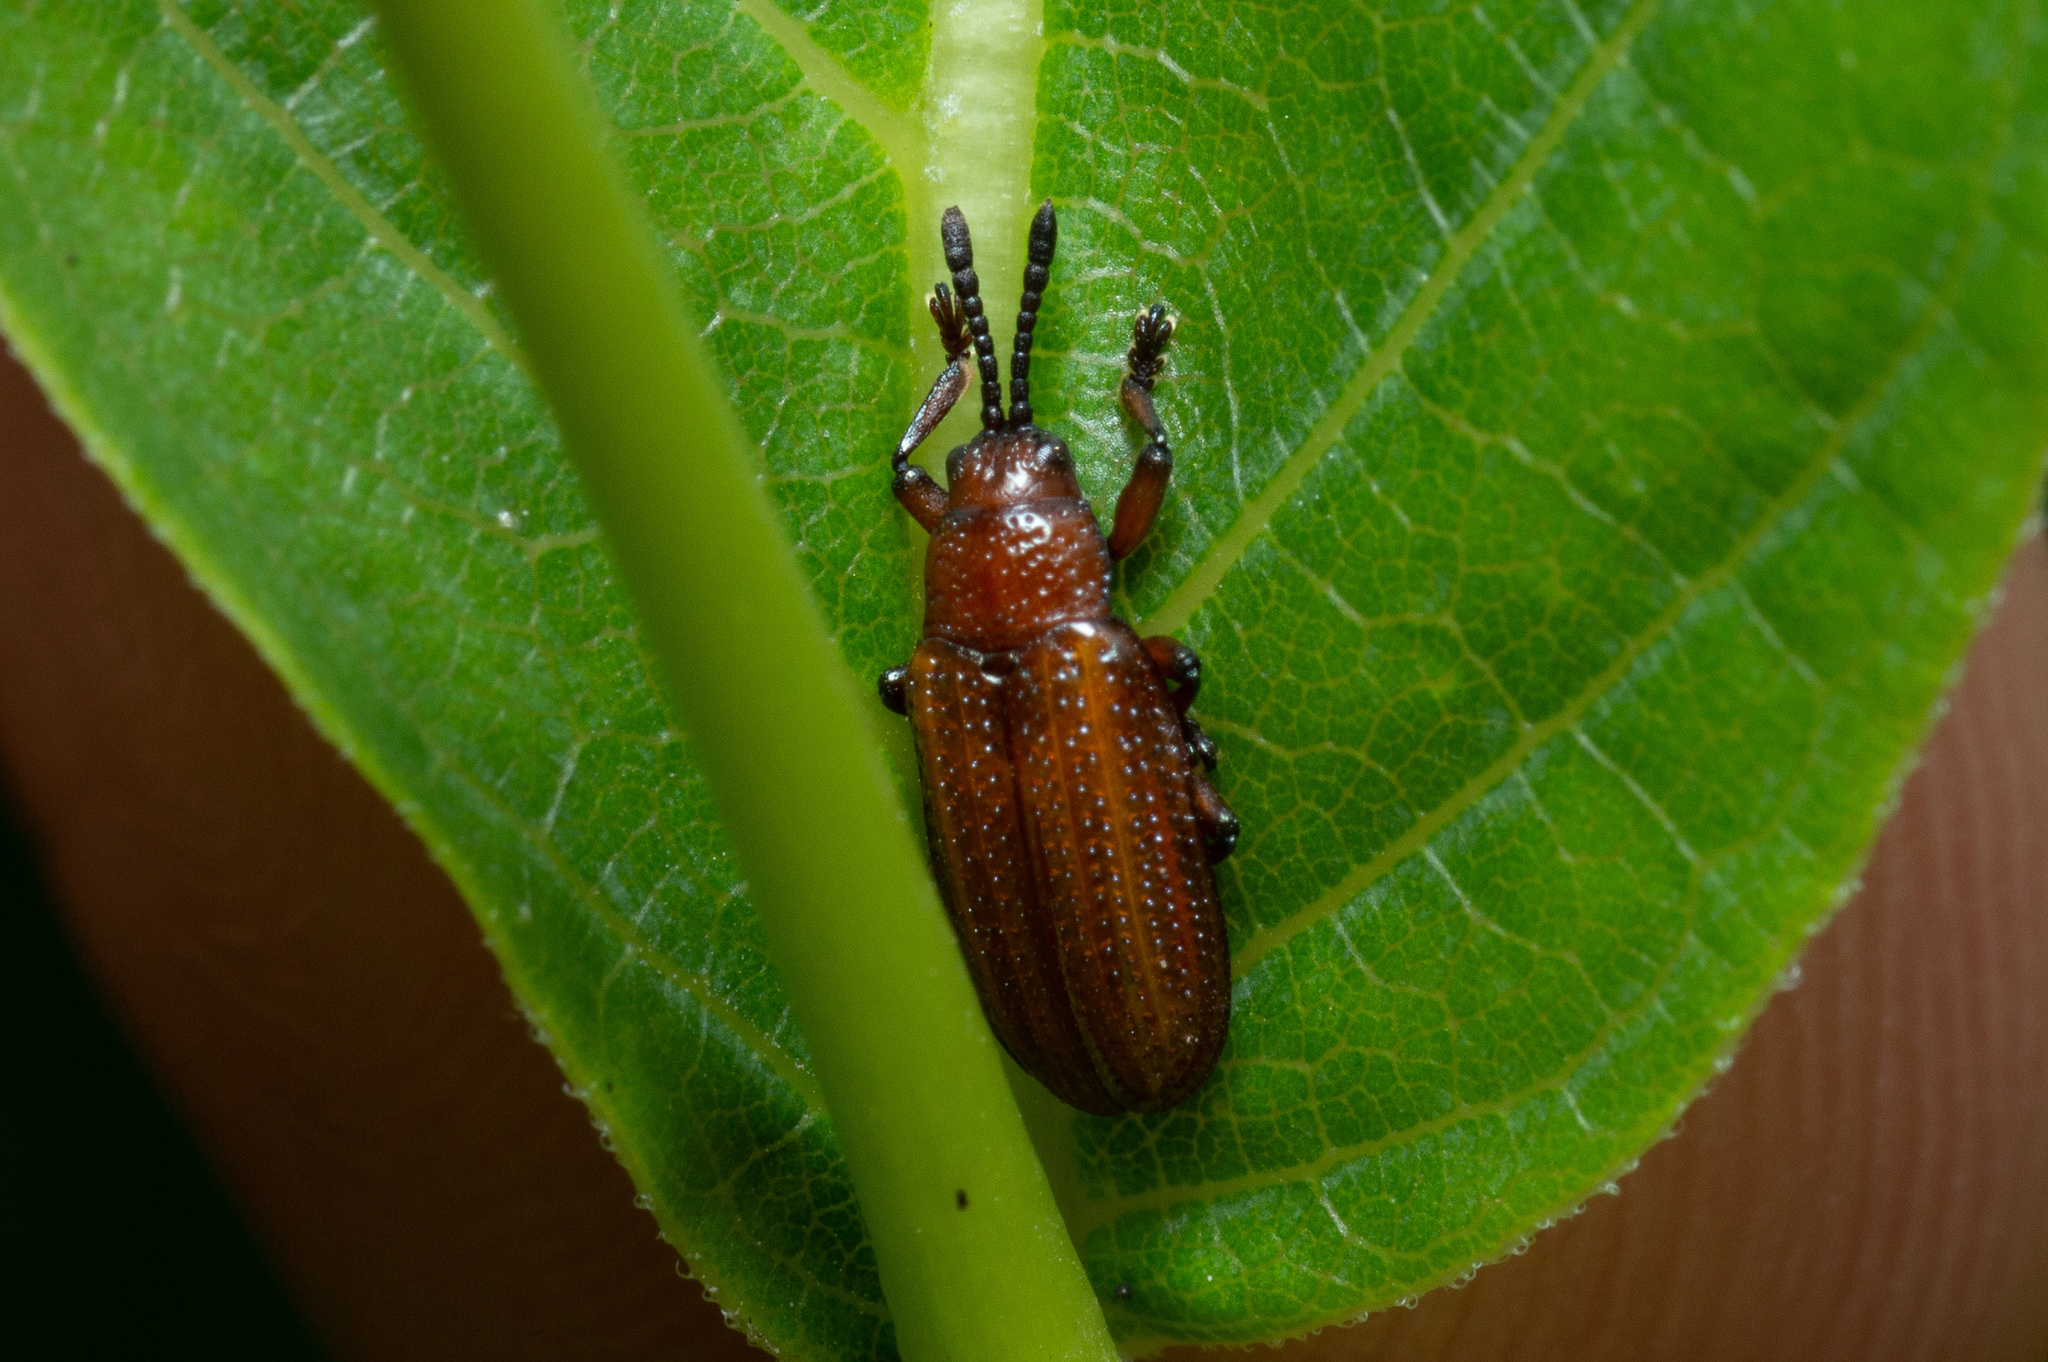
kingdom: Animalia
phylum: Arthropoda
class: Insecta
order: Coleoptera
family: Chrysomelidae
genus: Microrhopala
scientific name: Microrhopala vittata
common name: Goldenrod leaf miner beetle
